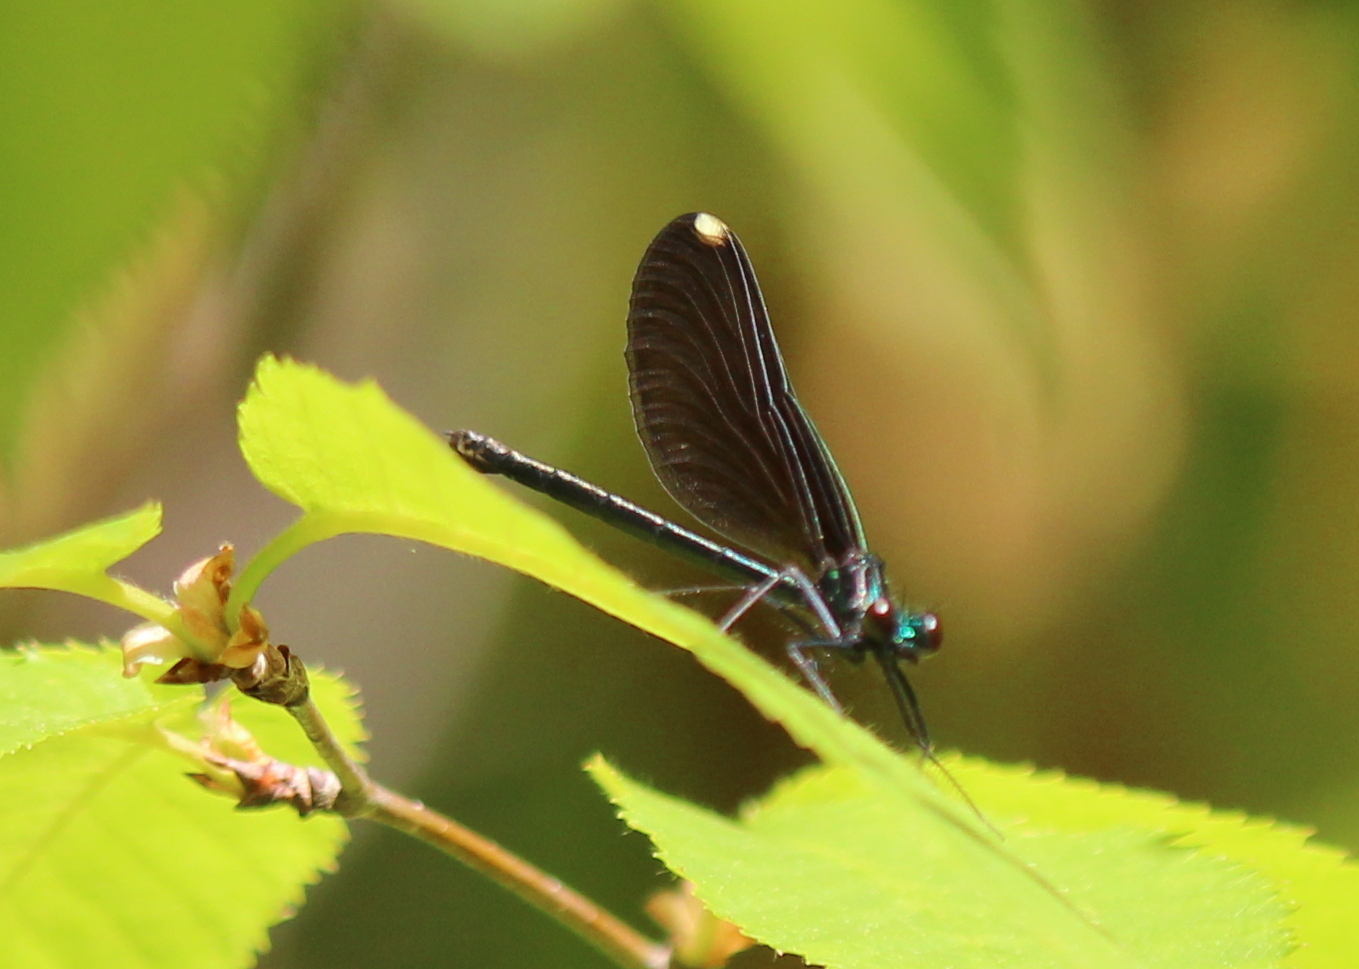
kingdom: Animalia
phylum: Arthropoda
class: Insecta
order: Odonata
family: Calopterygidae
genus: Calopteryx
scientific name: Calopteryx maculata
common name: Ebony jewelwing
